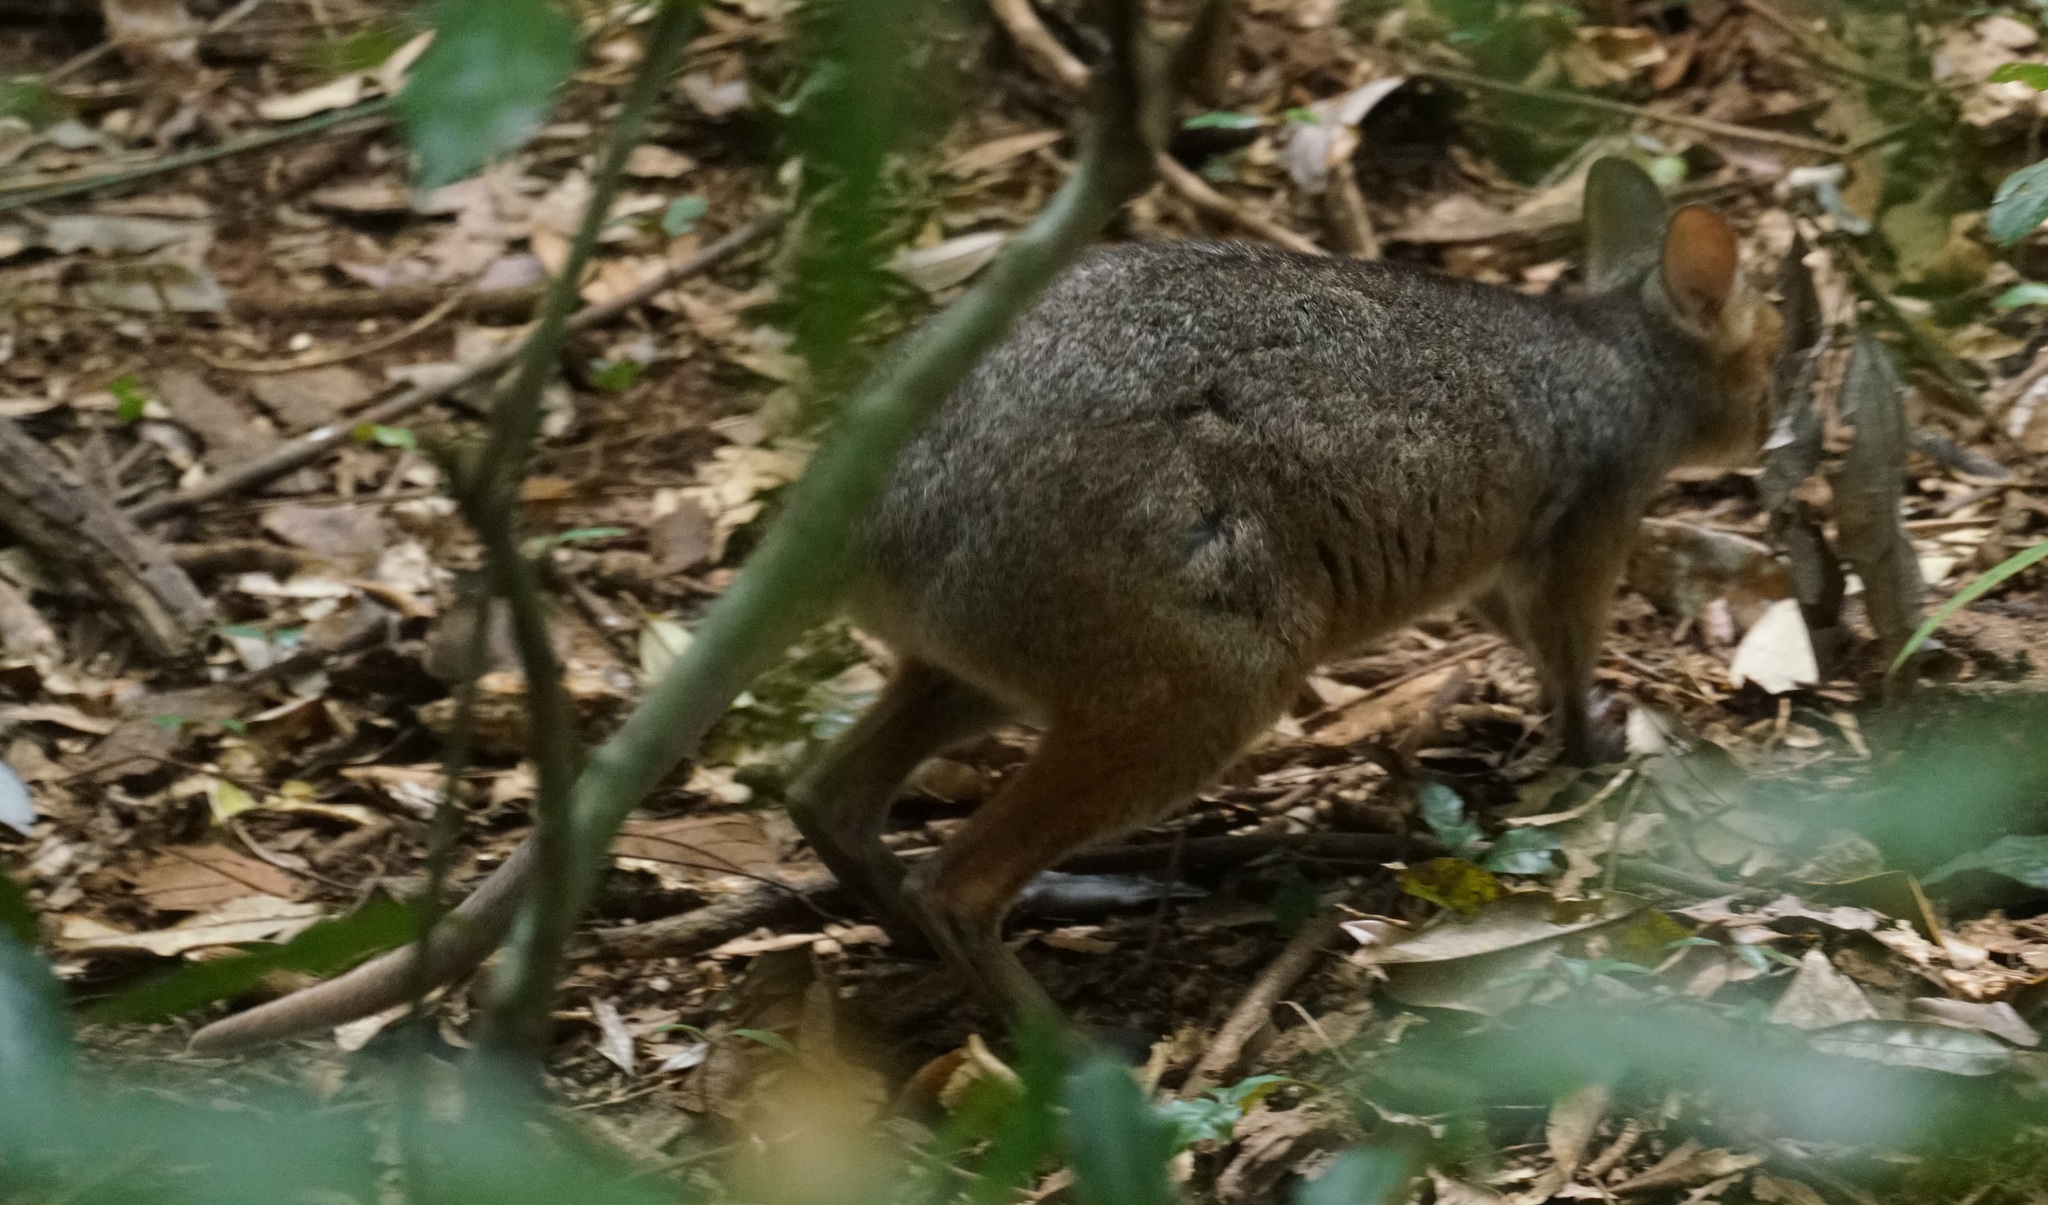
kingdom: Animalia
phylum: Chordata
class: Mammalia
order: Diprotodontia
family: Macropodidae
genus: Thylogale
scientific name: Thylogale stigmatica
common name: Red-legged pademelon
